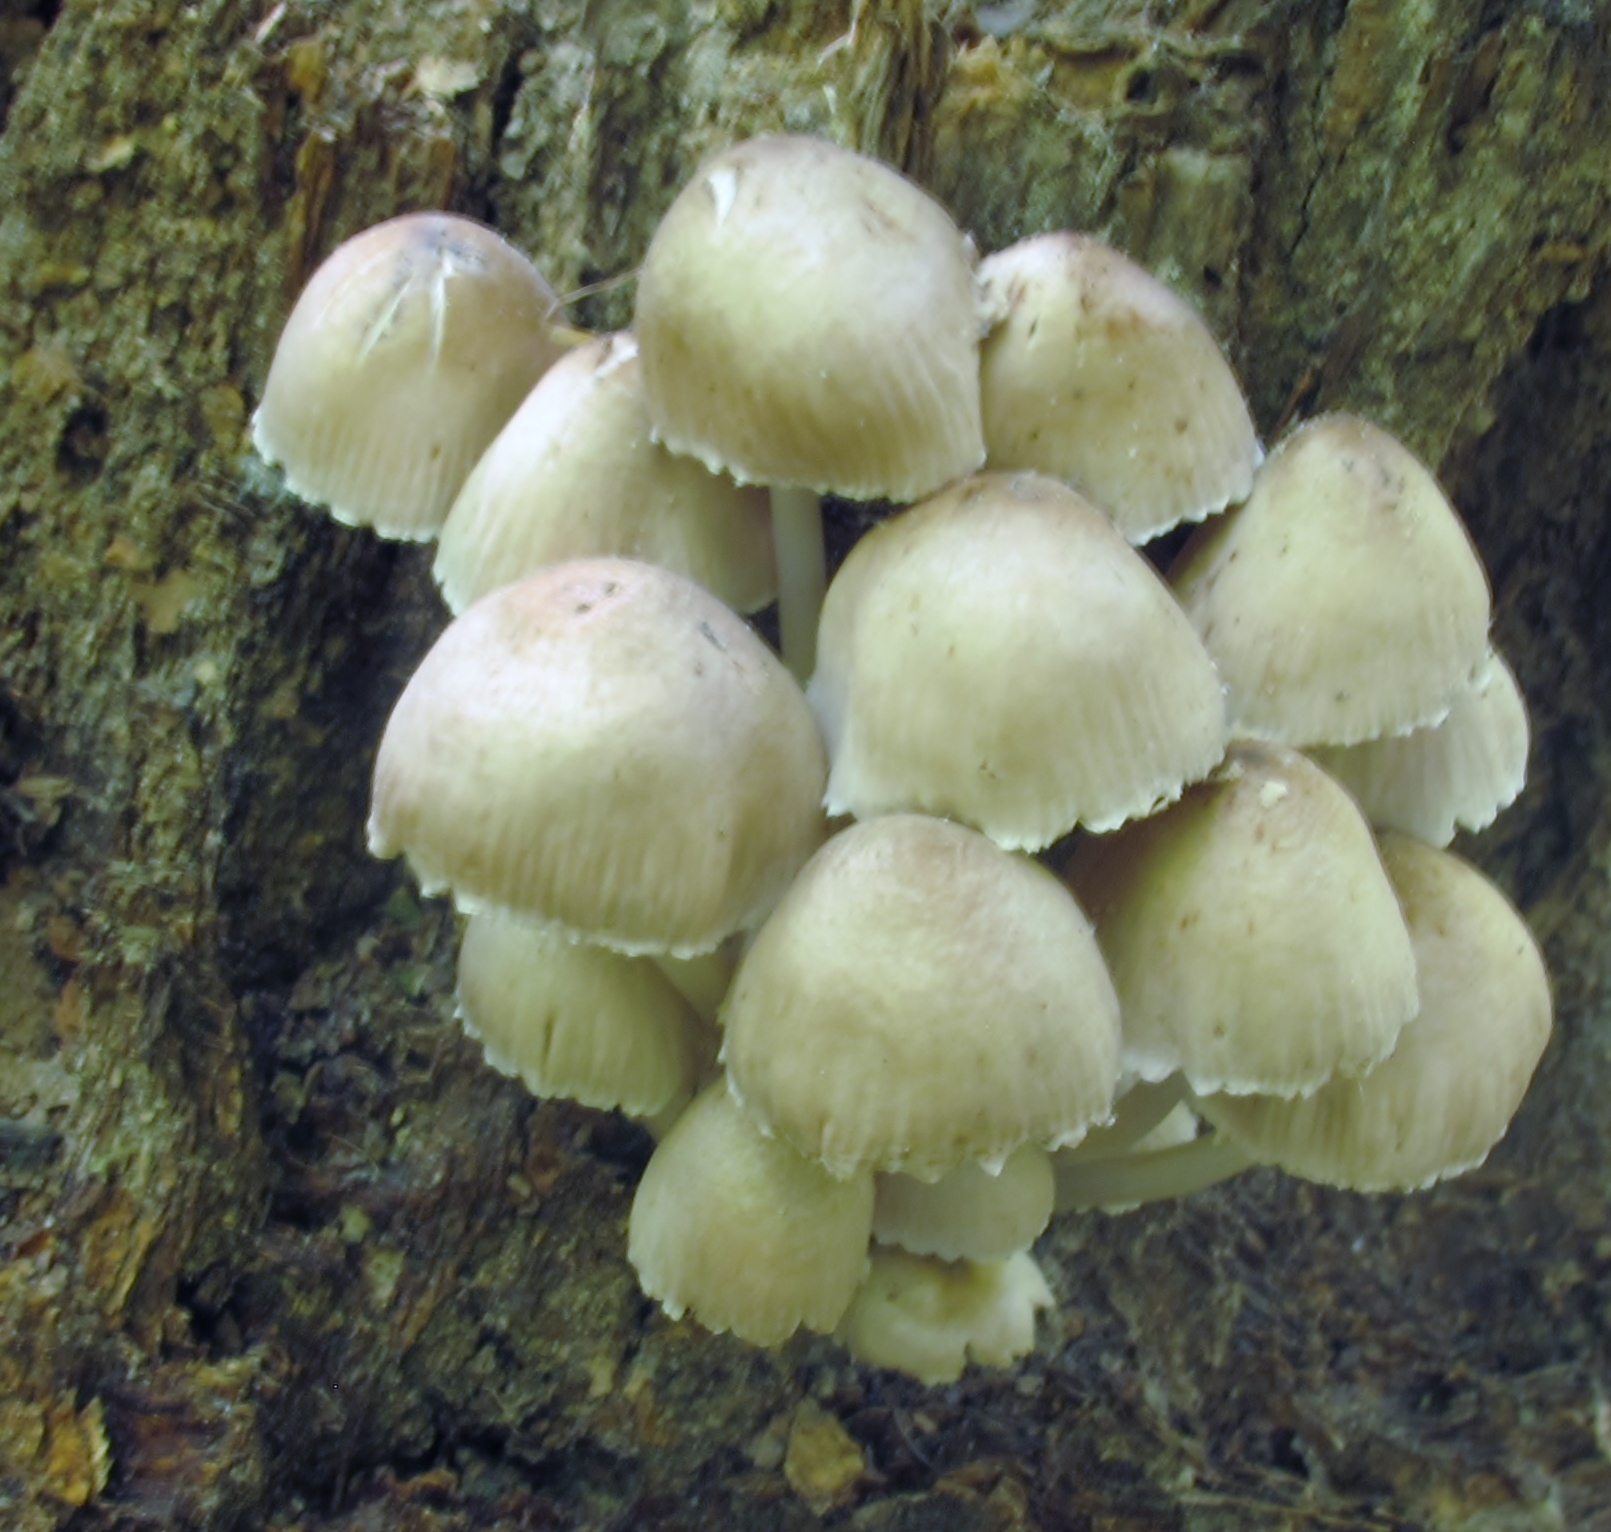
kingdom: Fungi
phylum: Basidiomycota
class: Agaricomycetes
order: Agaricales
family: Mycenaceae
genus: Mycena
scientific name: Mycena inclinata
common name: Clustered bonnet
